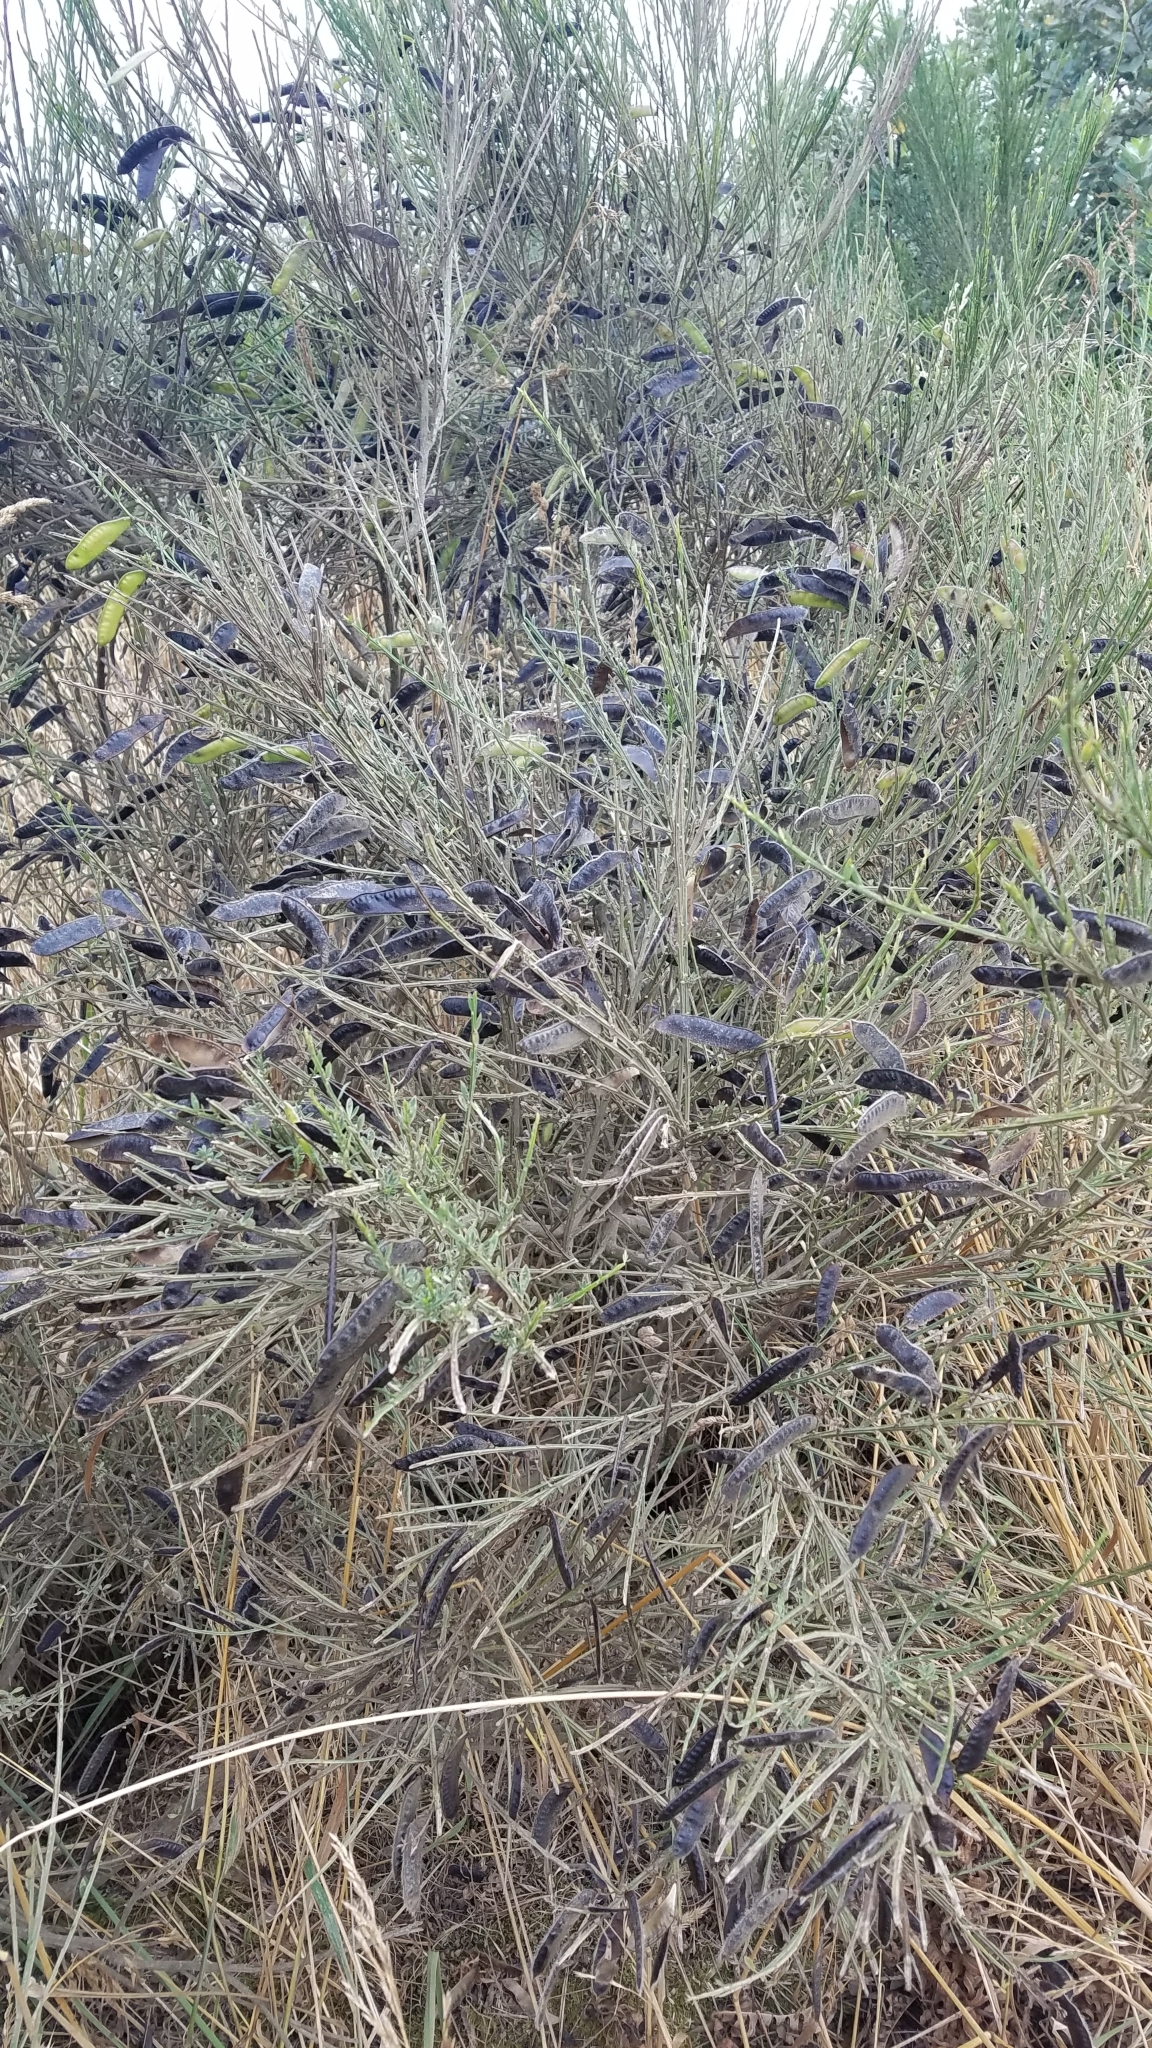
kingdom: Plantae
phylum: Tracheophyta
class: Magnoliopsida
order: Fabales
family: Fabaceae
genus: Cytisus
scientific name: Cytisus scoparius
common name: Scotch broom
